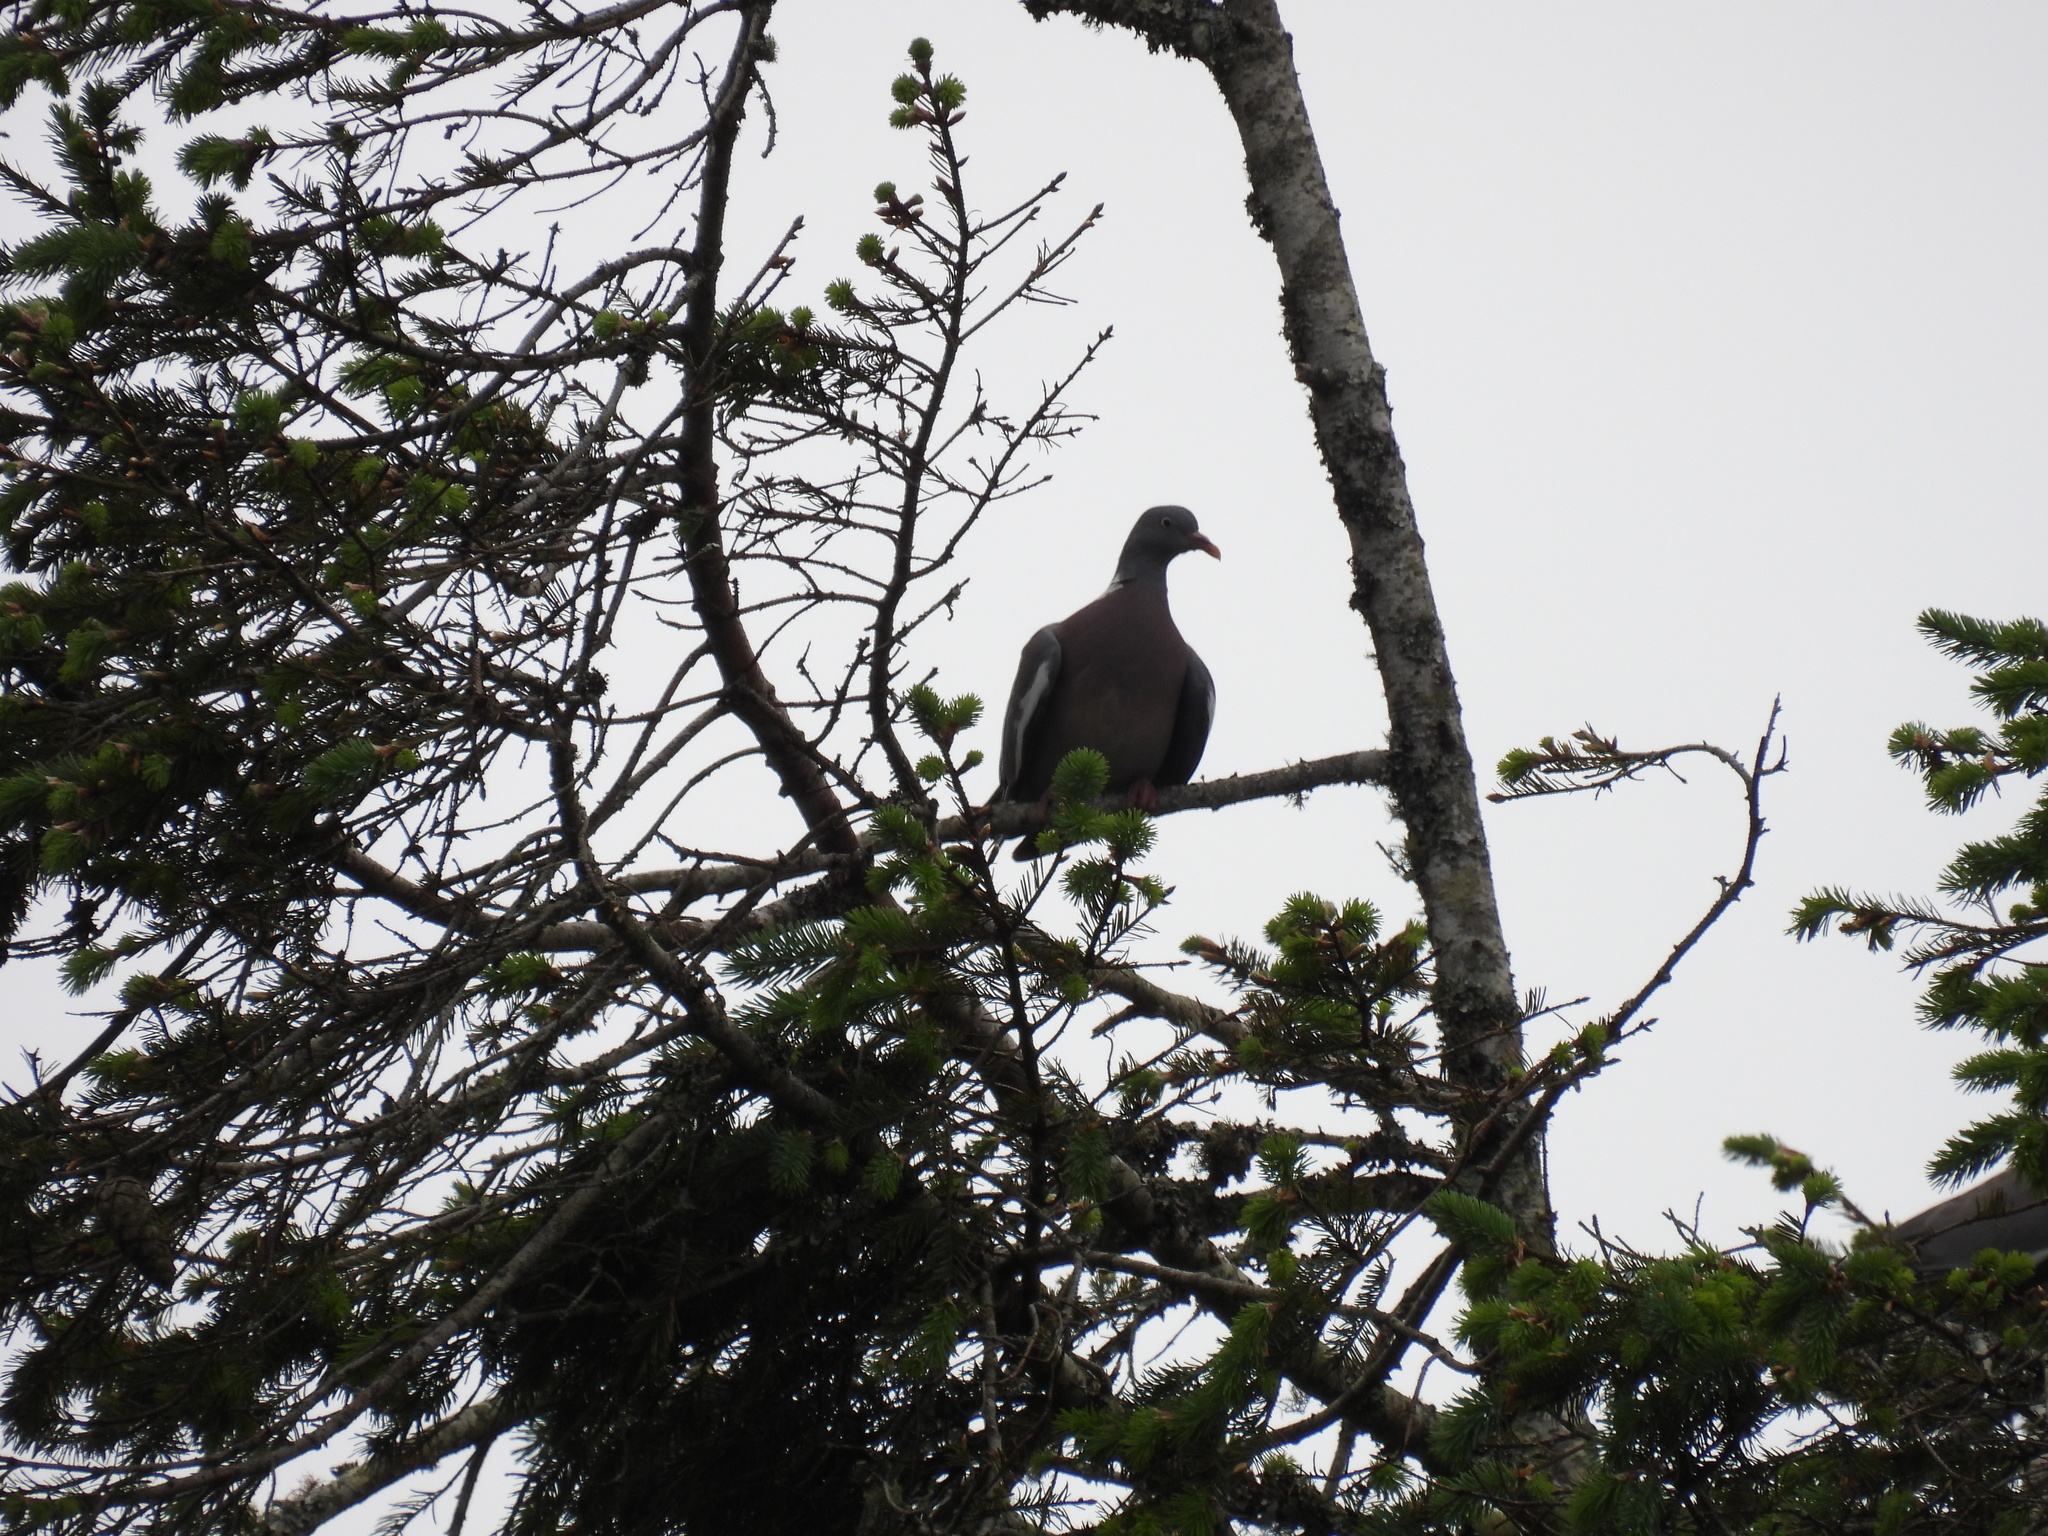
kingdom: Animalia
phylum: Chordata
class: Aves
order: Columbiformes
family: Columbidae
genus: Columba
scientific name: Columba palumbus
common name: Common wood pigeon
